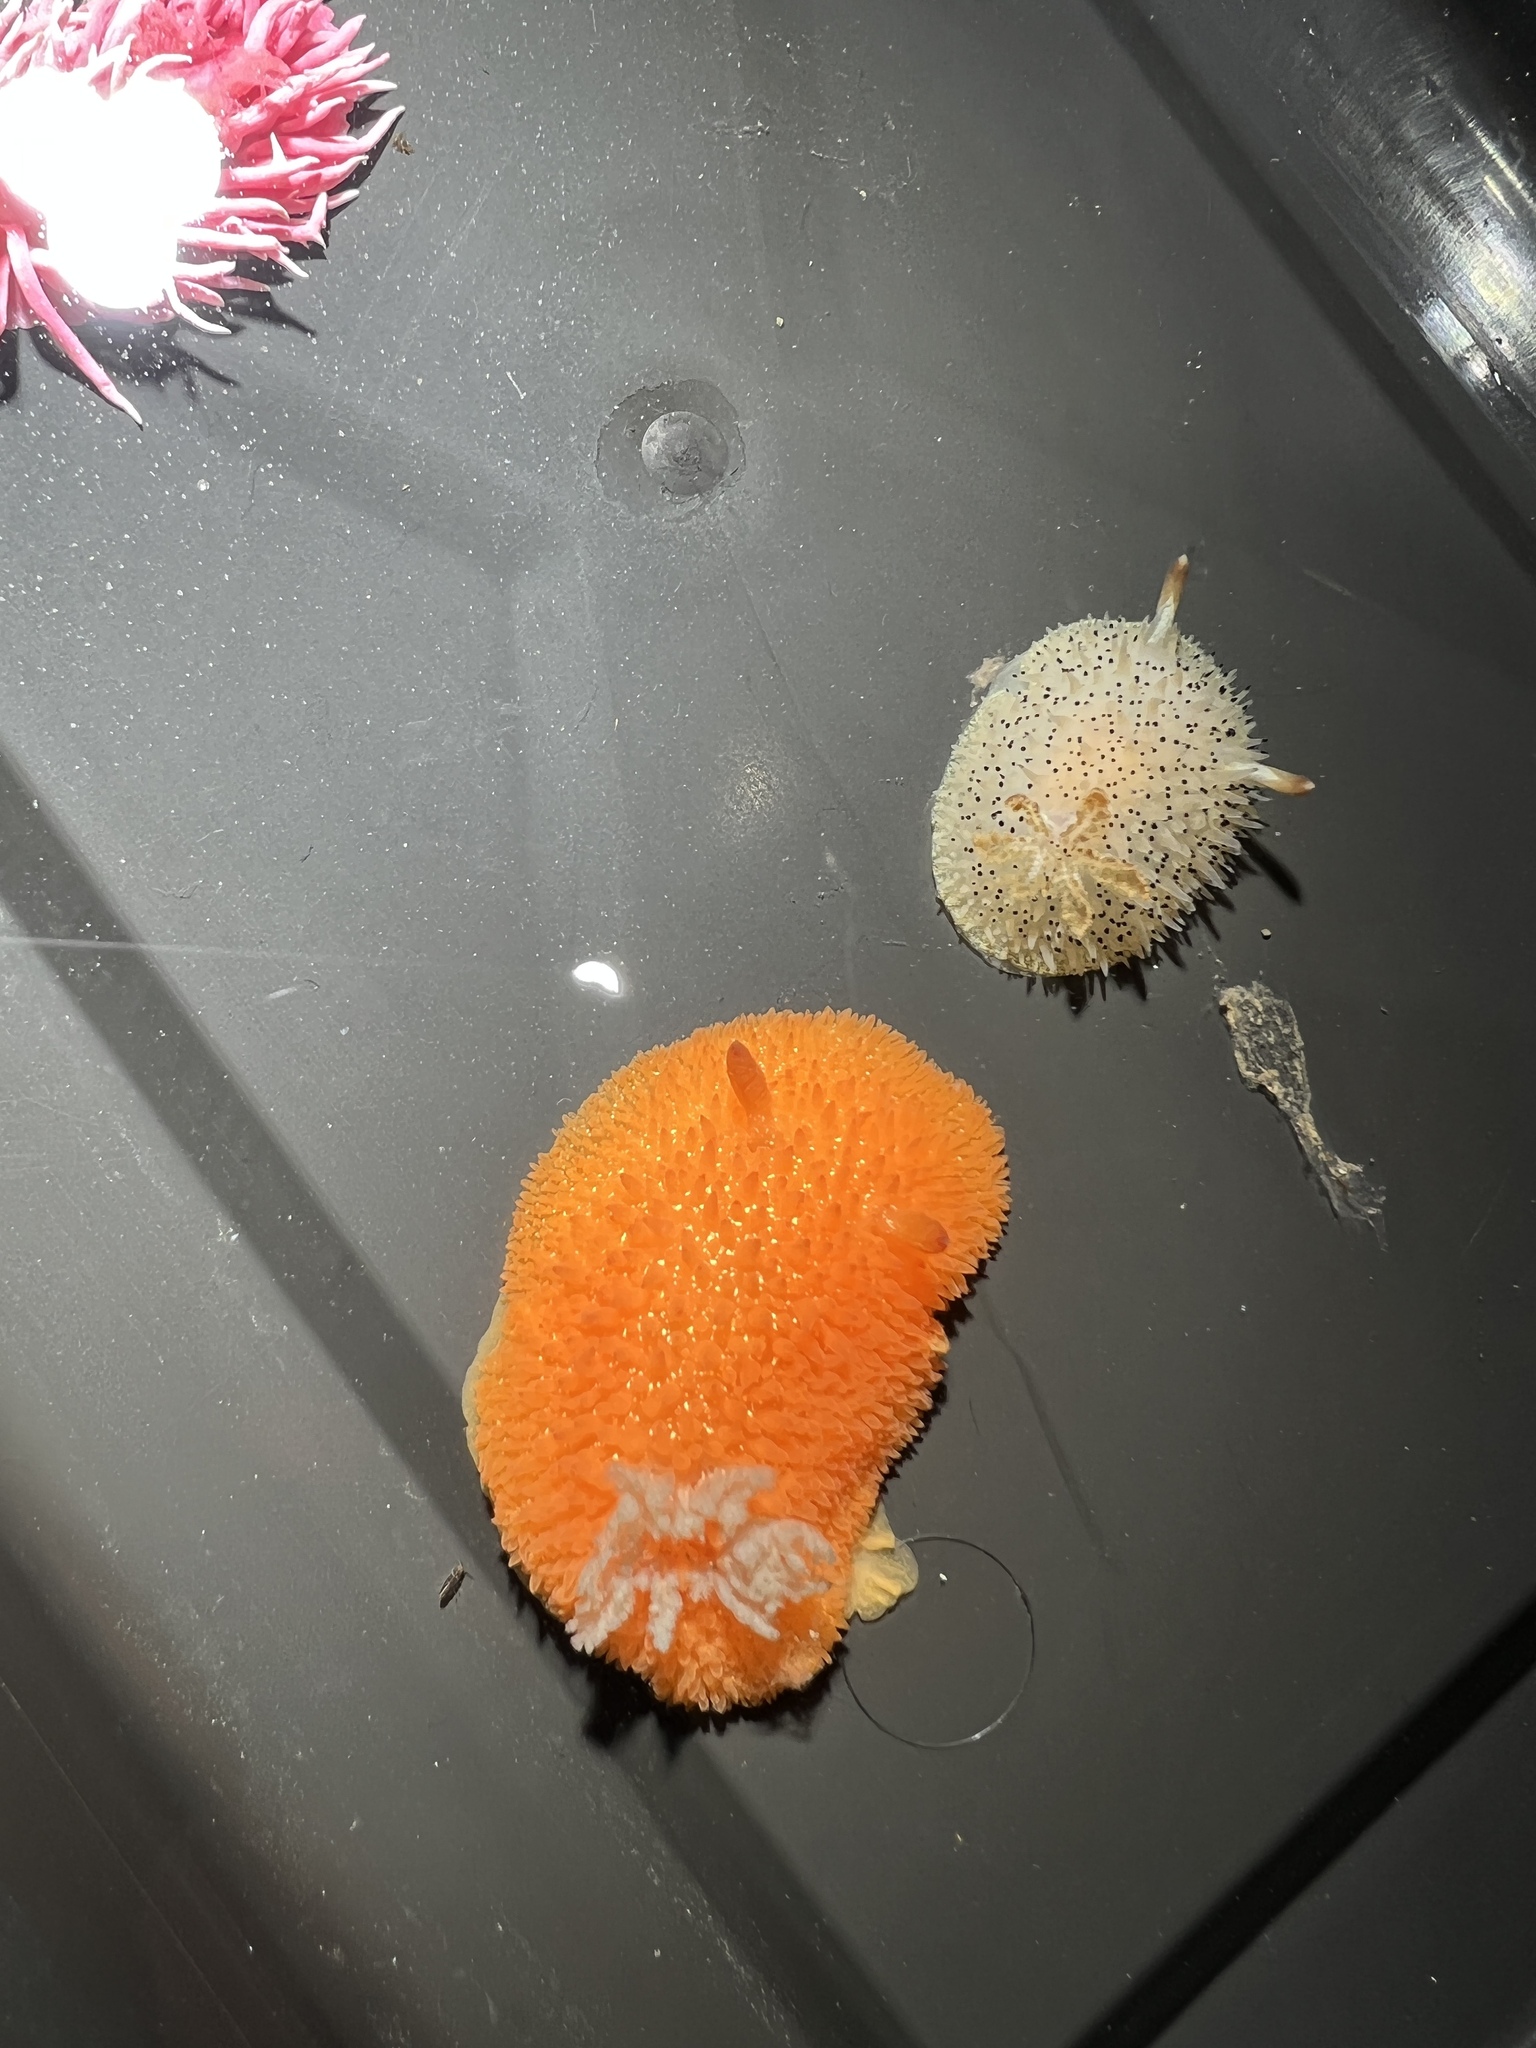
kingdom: Animalia
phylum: Mollusca
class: Gastropoda
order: Nudibranchia
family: Onchidorididae
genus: Acanthodoris
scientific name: Acanthodoris lutea
